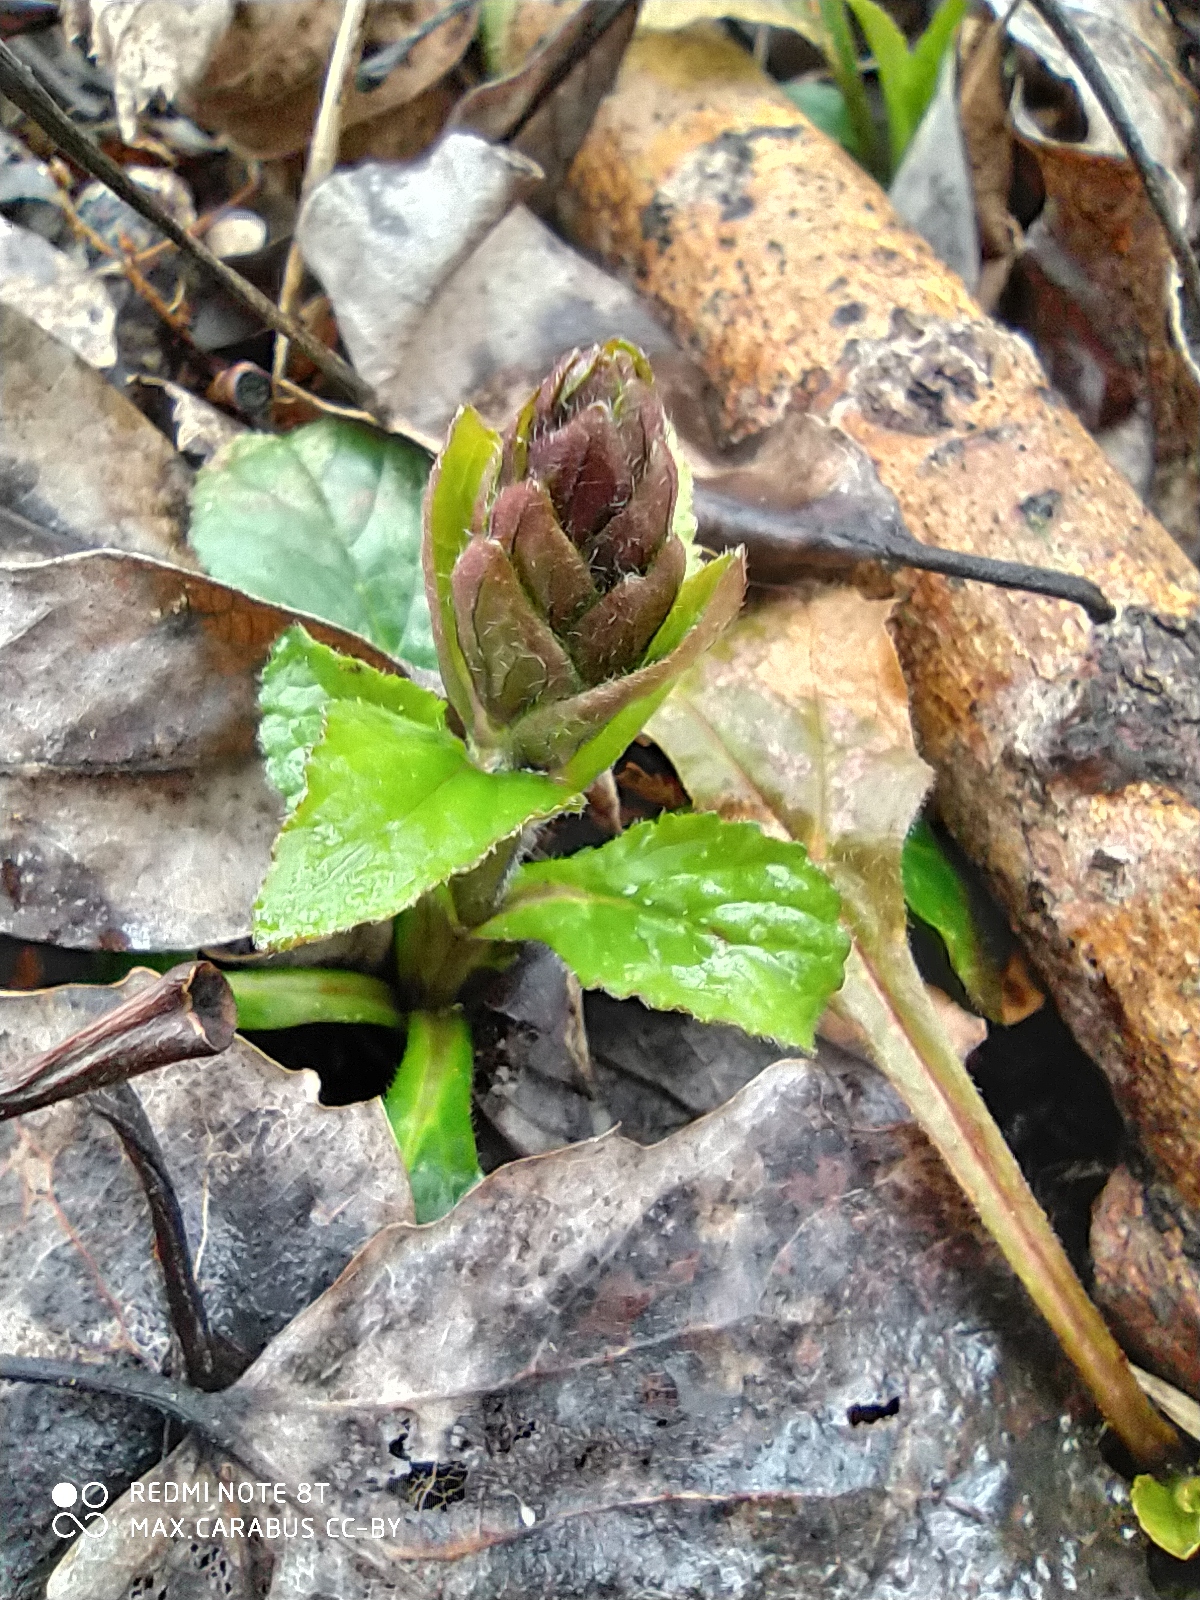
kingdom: Plantae
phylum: Tracheophyta
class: Magnoliopsida
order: Lamiales
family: Lamiaceae
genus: Ajuga
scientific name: Ajuga reptans
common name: Bugle
